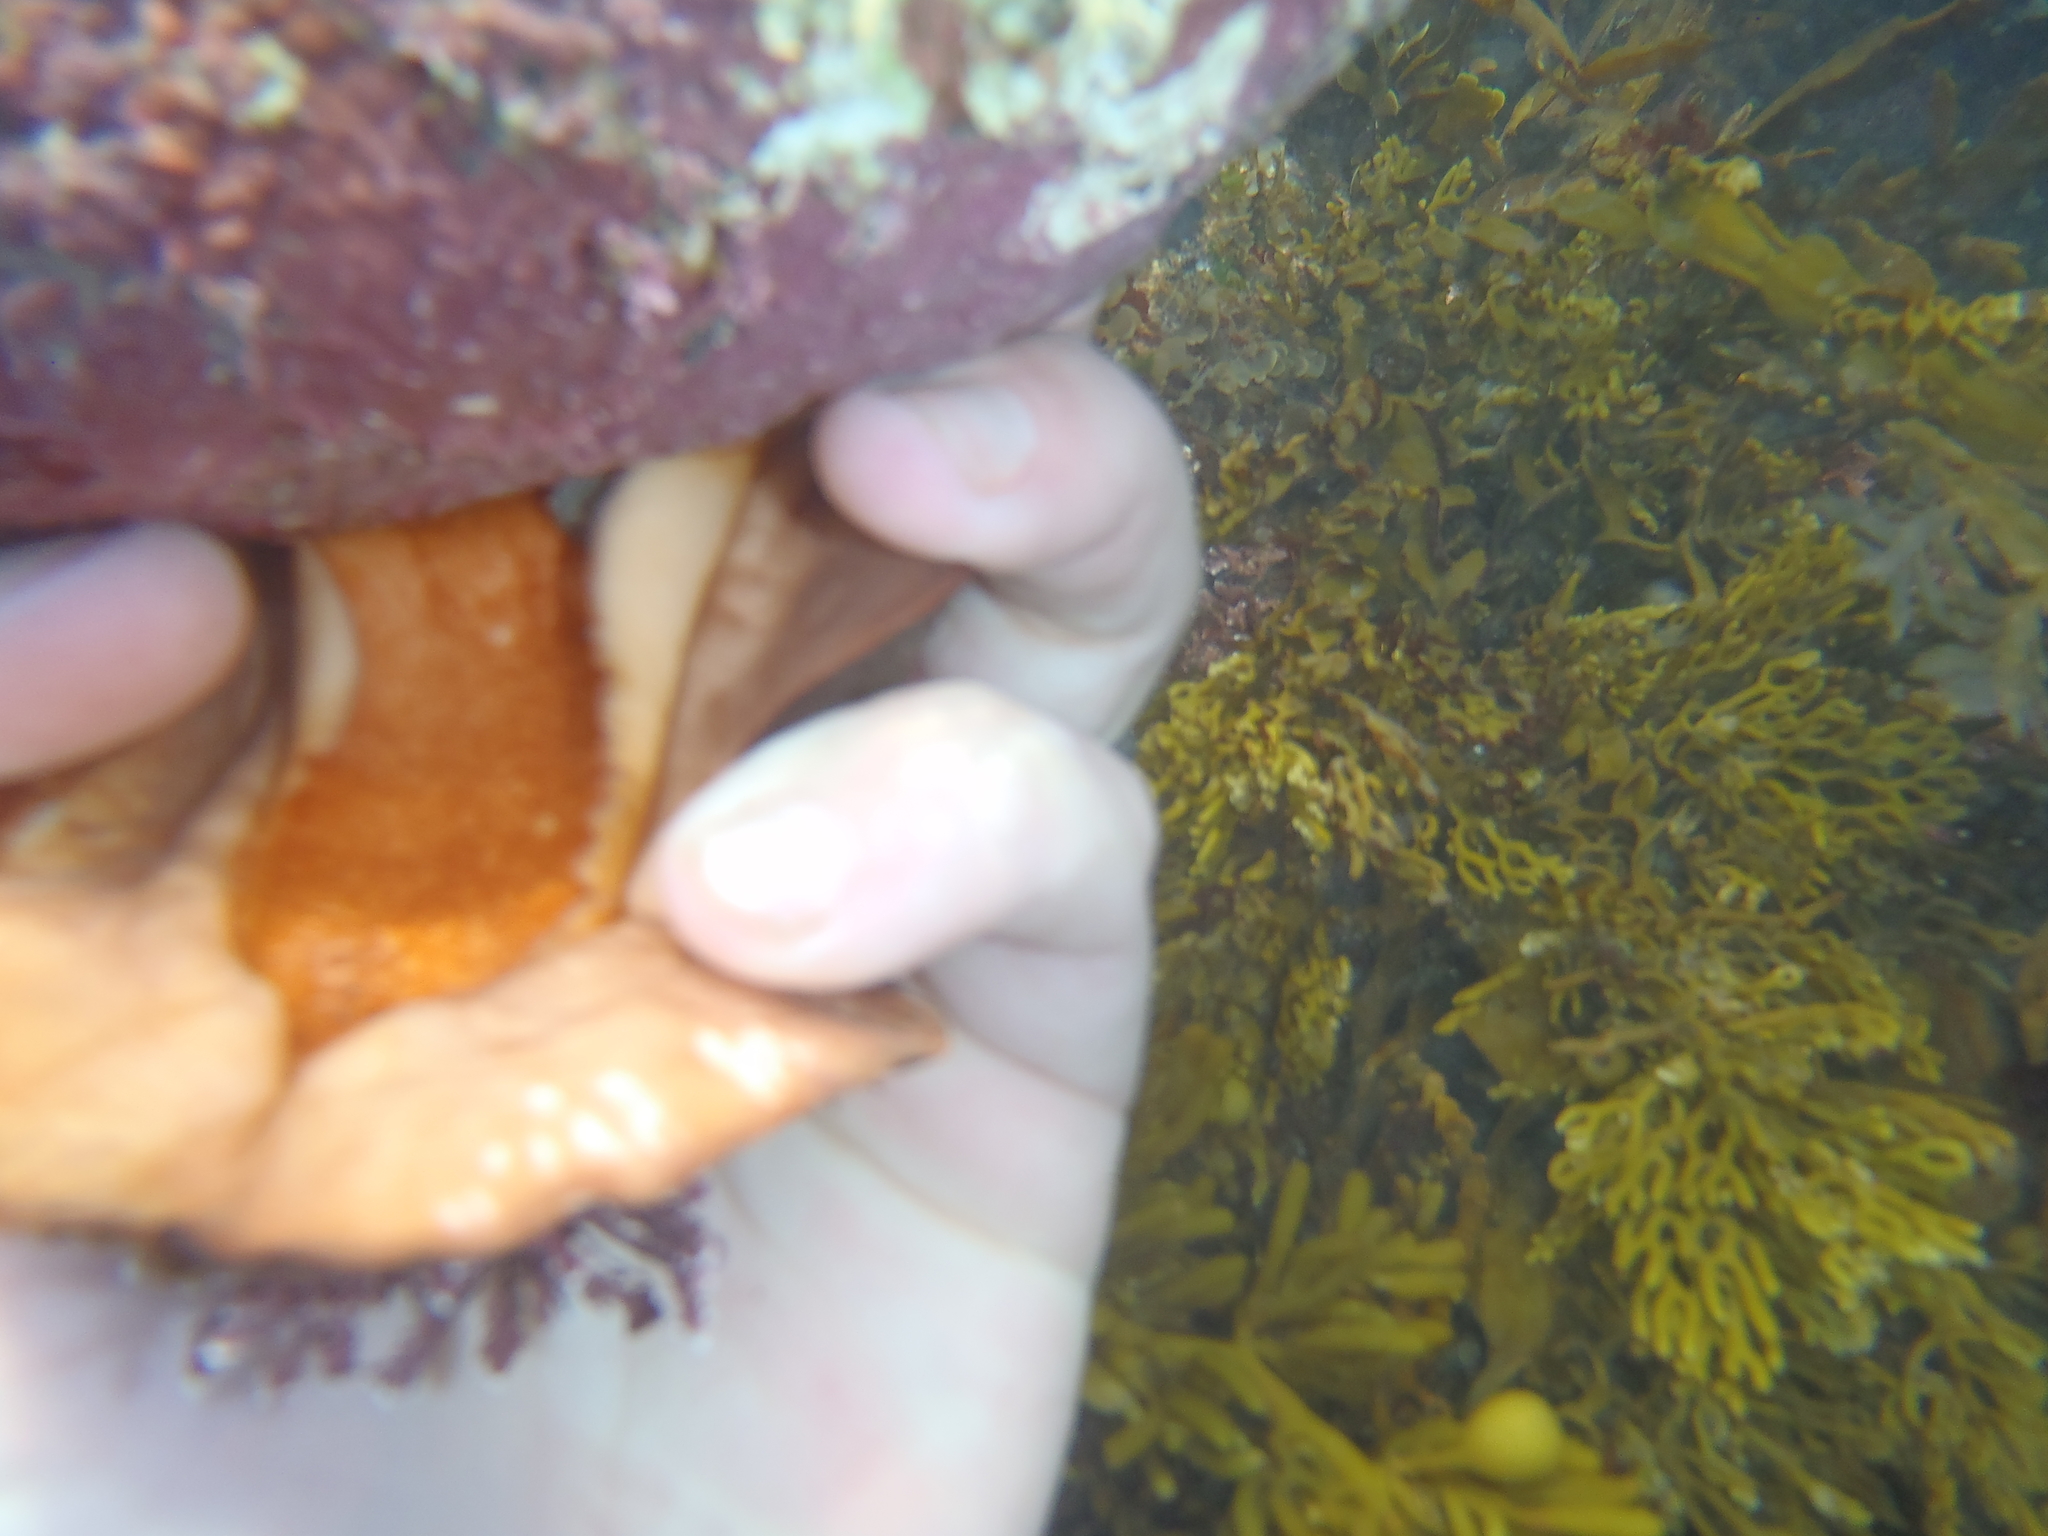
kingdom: Animalia
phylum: Mollusca
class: Polyplacophora
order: Callochitonida
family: Callochitonidae
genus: Eudoxochiton
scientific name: Eudoxochiton nobilis
